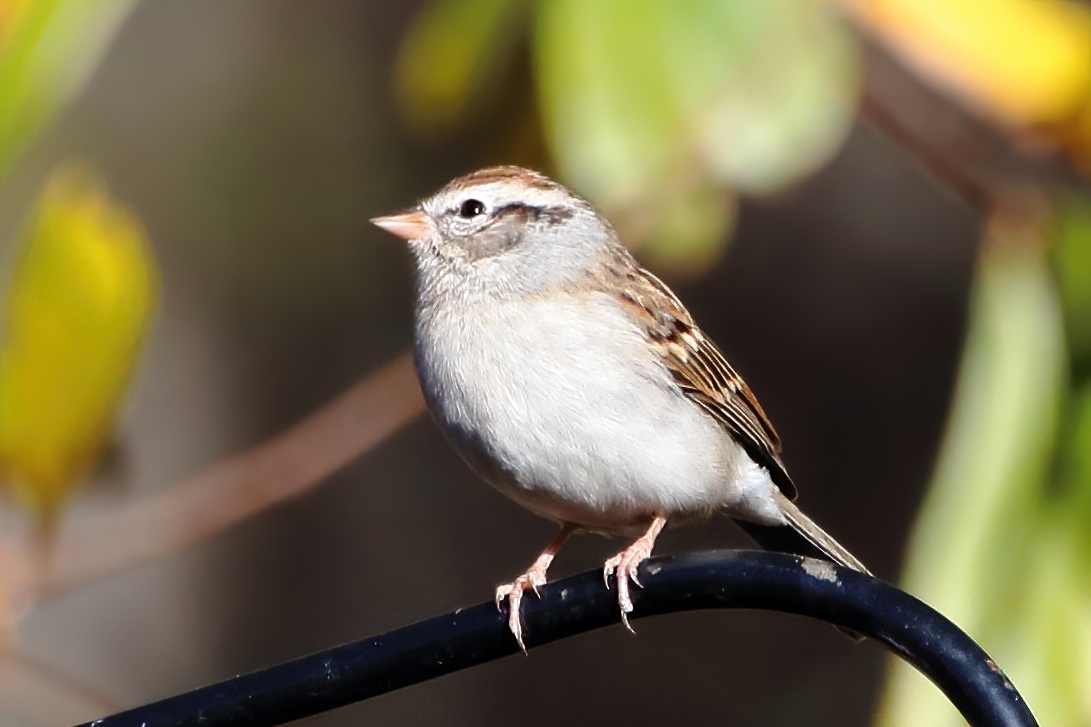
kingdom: Animalia
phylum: Chordata
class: Aves
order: Passeriformes
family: Passerellidae
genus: Spizella
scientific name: Spizella passerina
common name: Chipping sparrow
